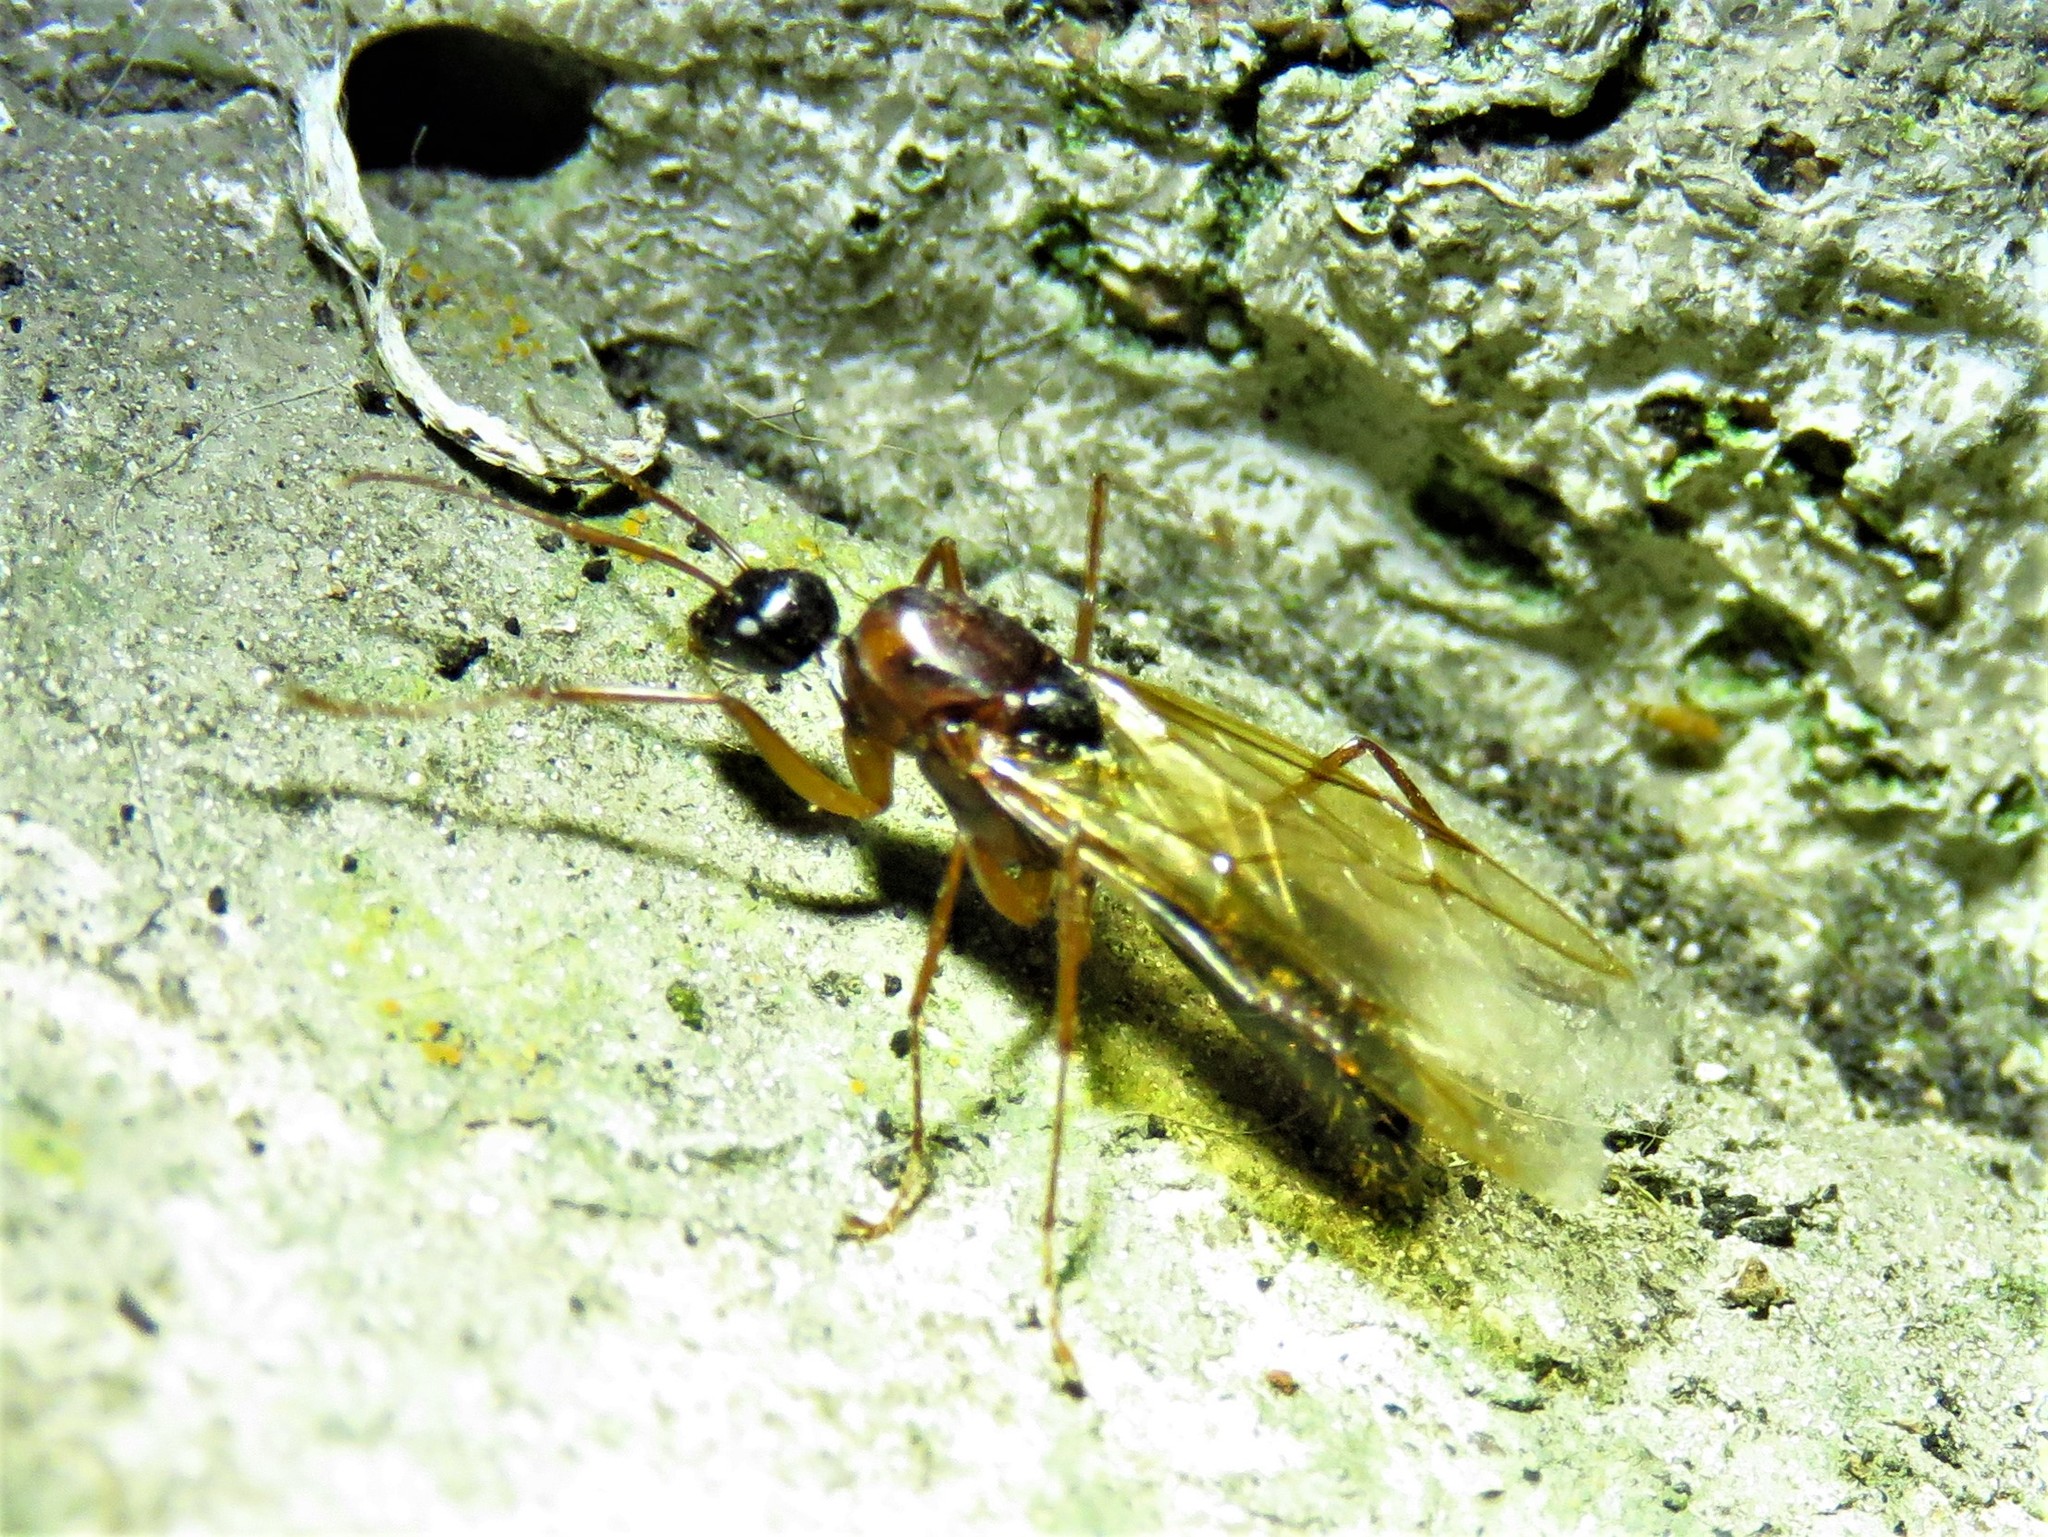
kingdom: Animalia
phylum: Arthropoda
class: Insecta
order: Hymenoptera
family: Formicidae
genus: Camponotus
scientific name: Camponotus texanus
